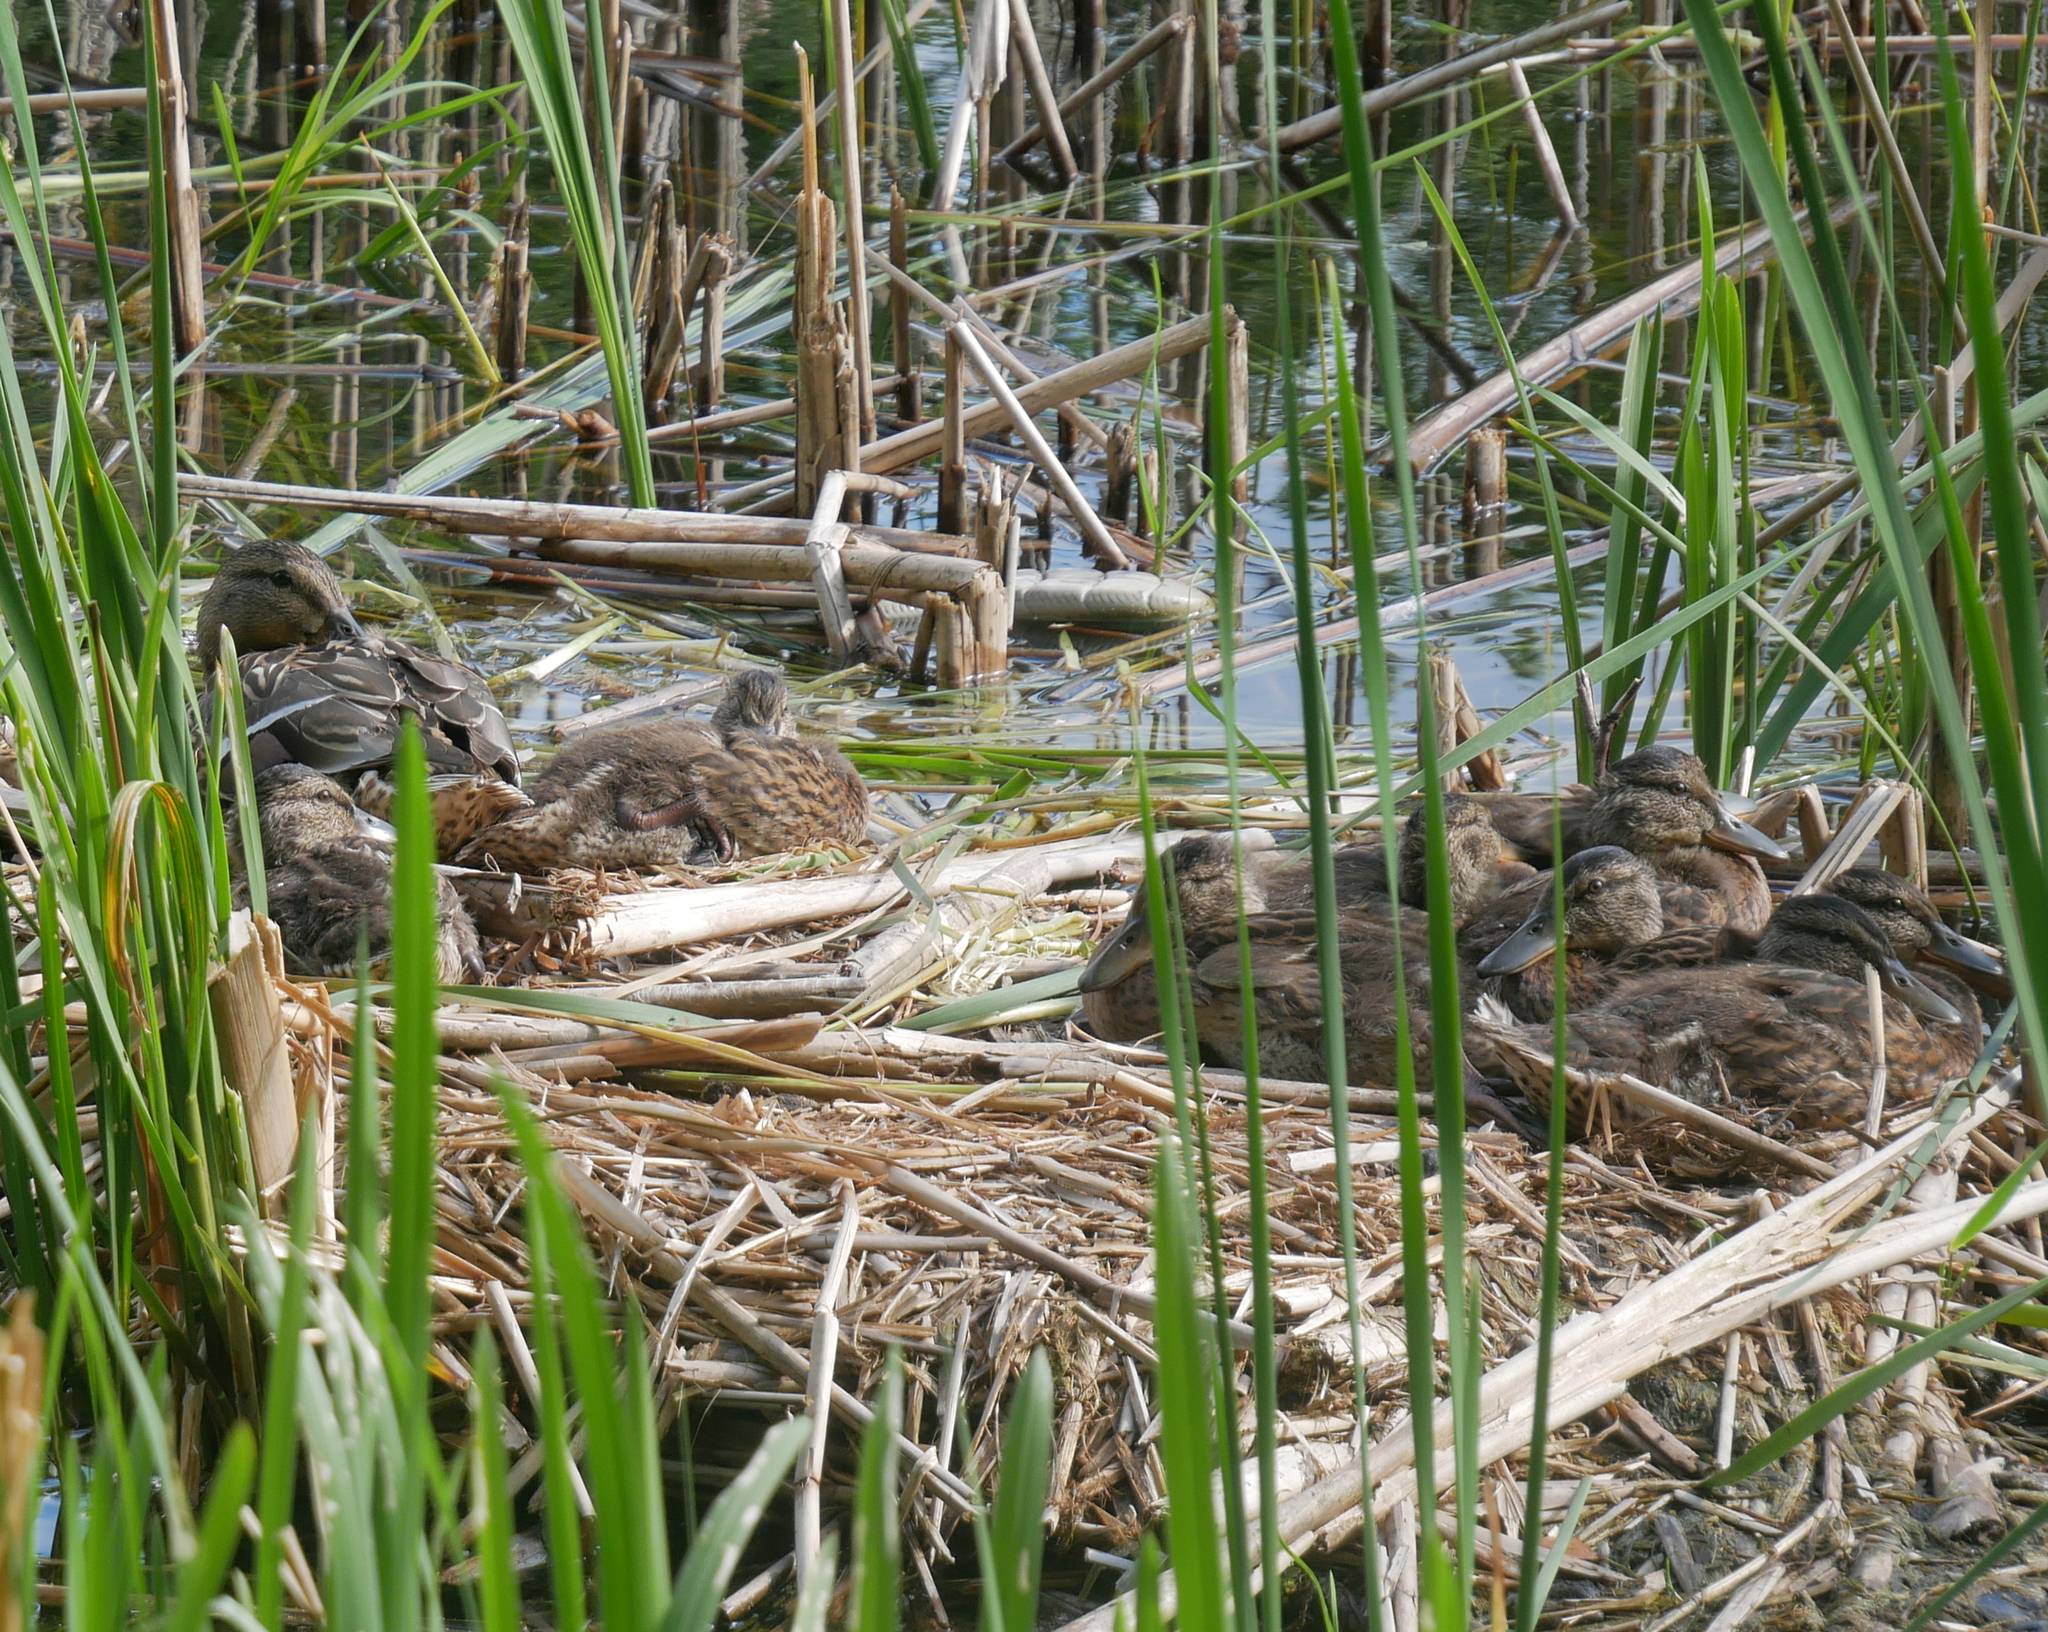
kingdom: Animalia
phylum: Chordata
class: Aves
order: Anseriformes
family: Anatidae
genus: Anas
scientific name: Anas platyrhynchos
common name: Mallard
